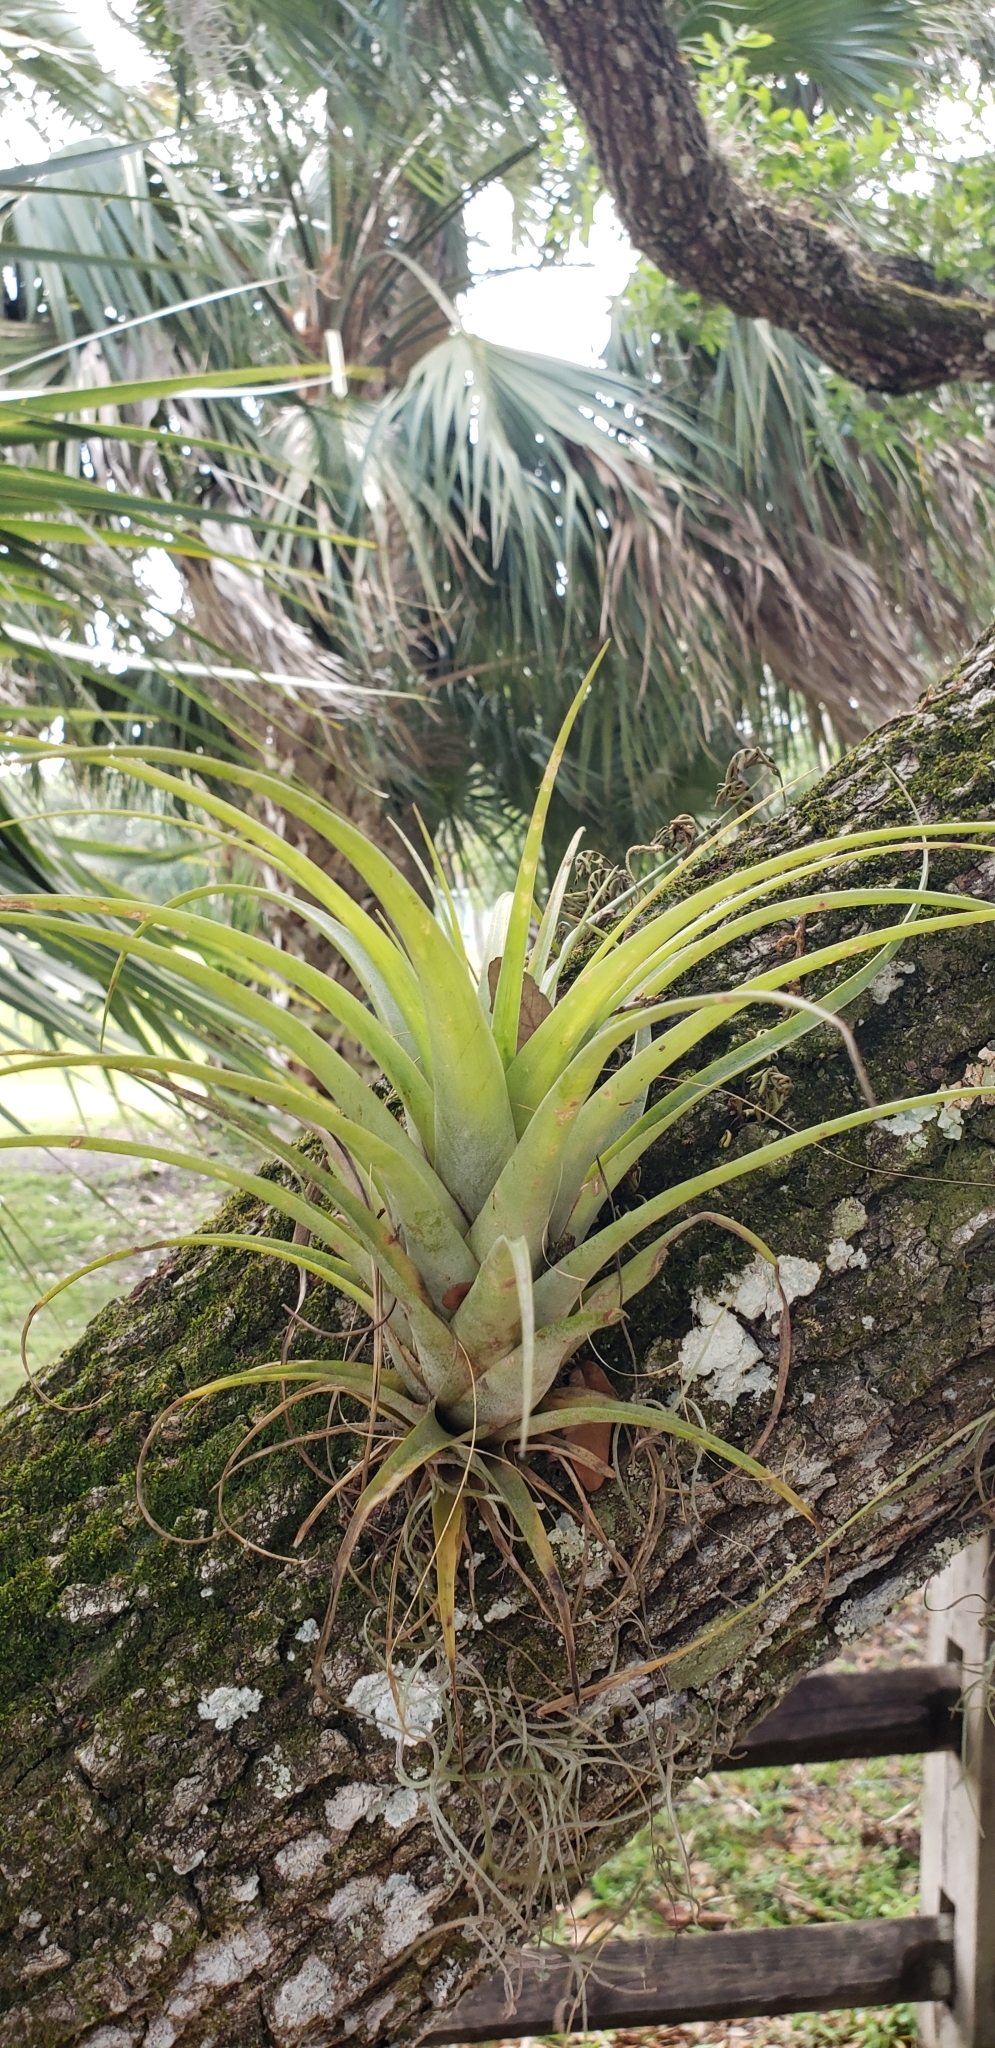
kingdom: Plantae
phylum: Tracheophyta
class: Liliopsida
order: Poales
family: Bromeliaceae
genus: Tillandsia
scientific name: Tillandsia utriculata
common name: Wild pine
